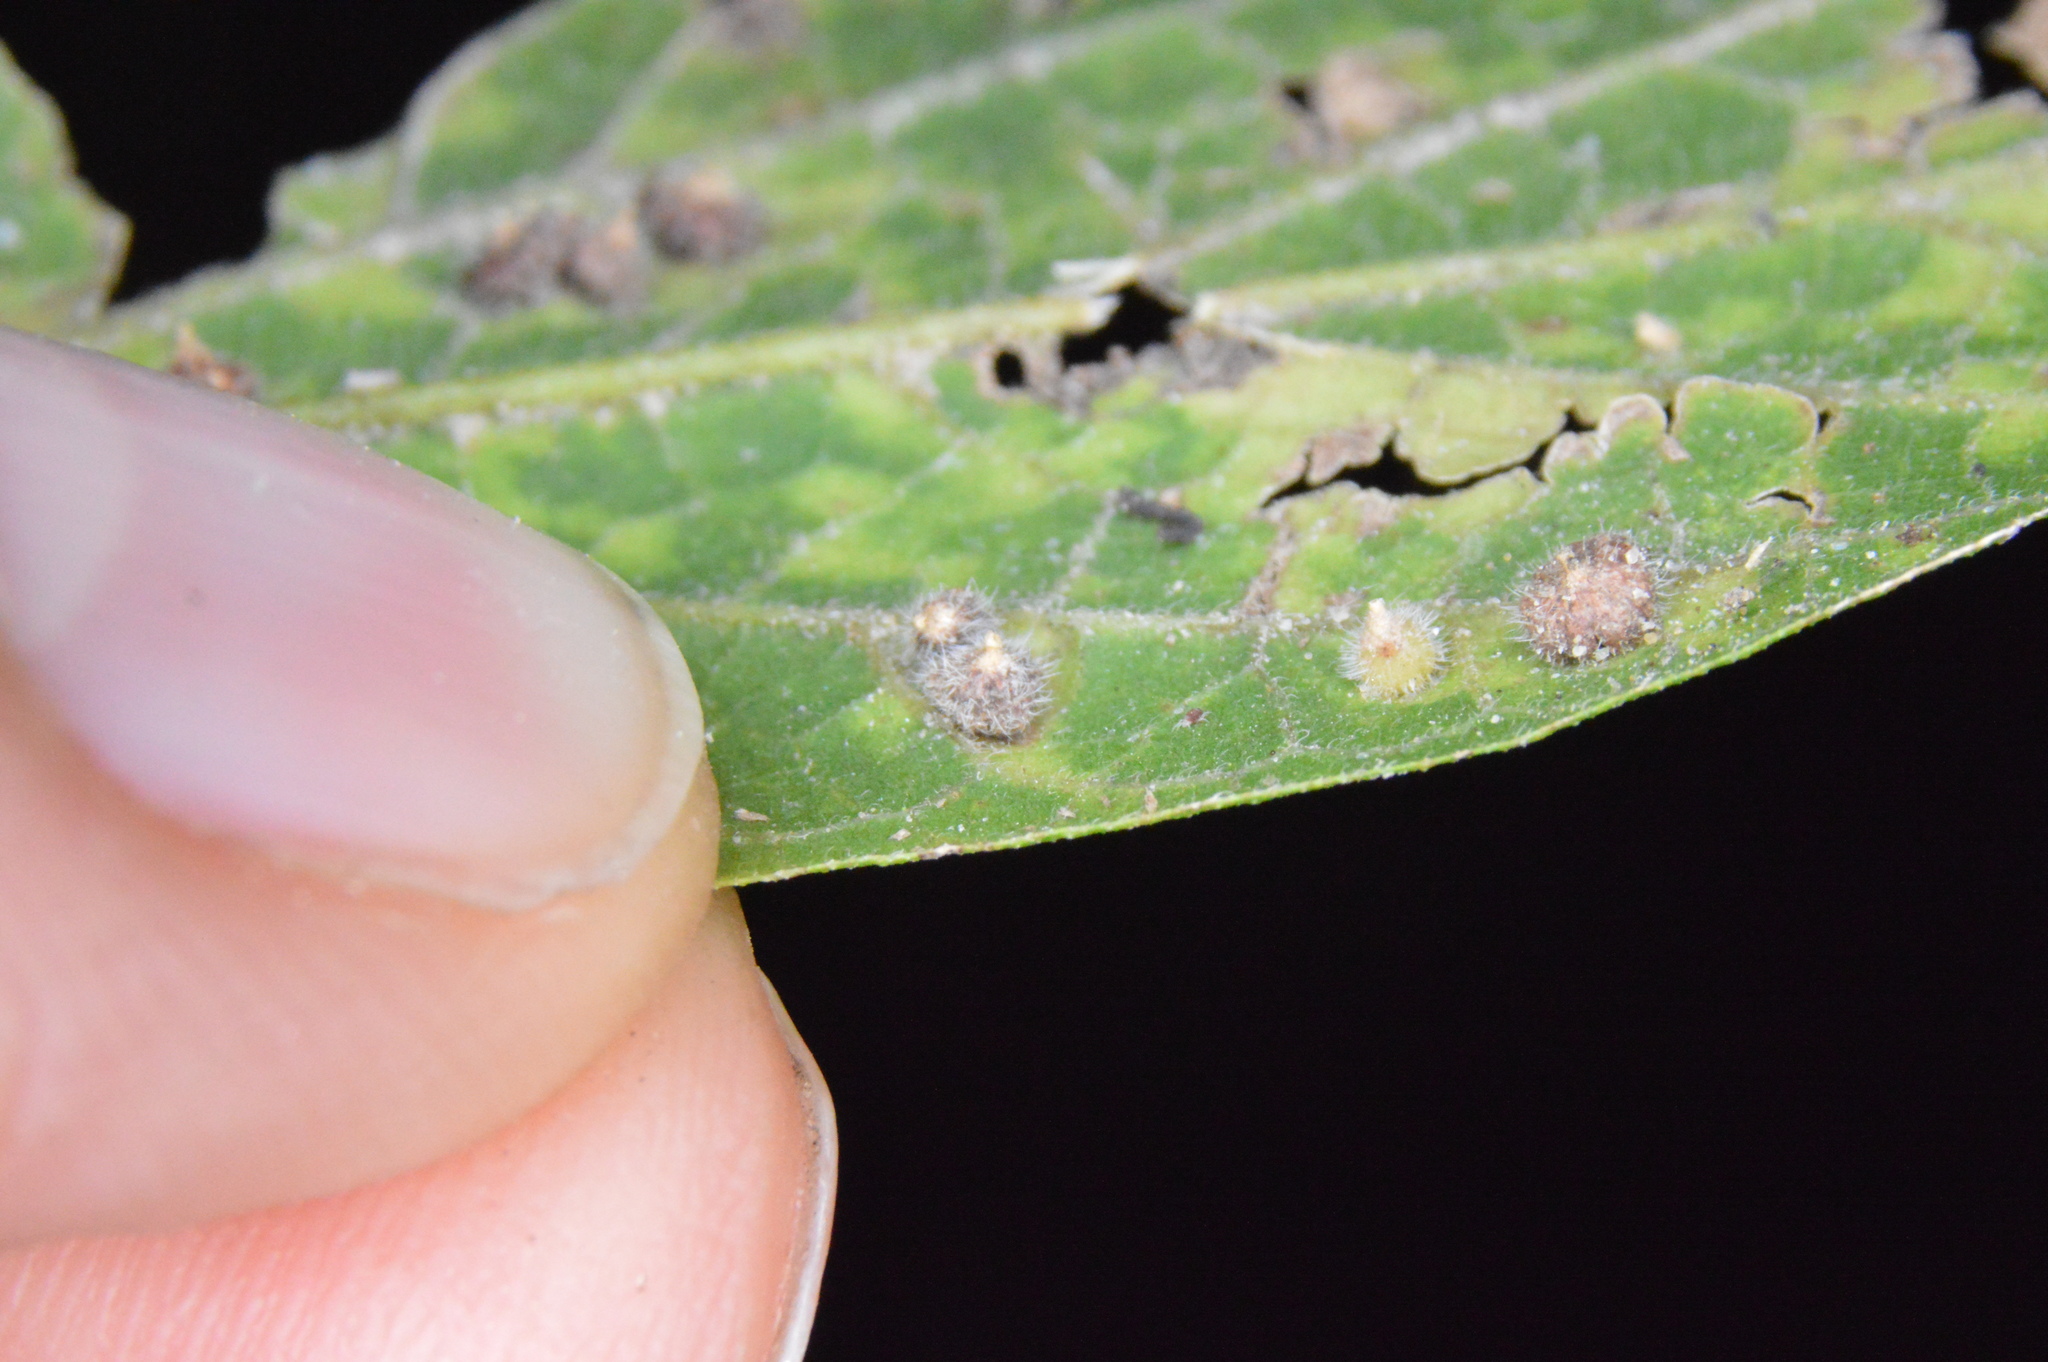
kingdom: Animalia
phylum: Arthropoda
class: Insecta
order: Diptera
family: Cecidomyiidae
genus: Celticecis
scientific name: Celticecis capsularis
